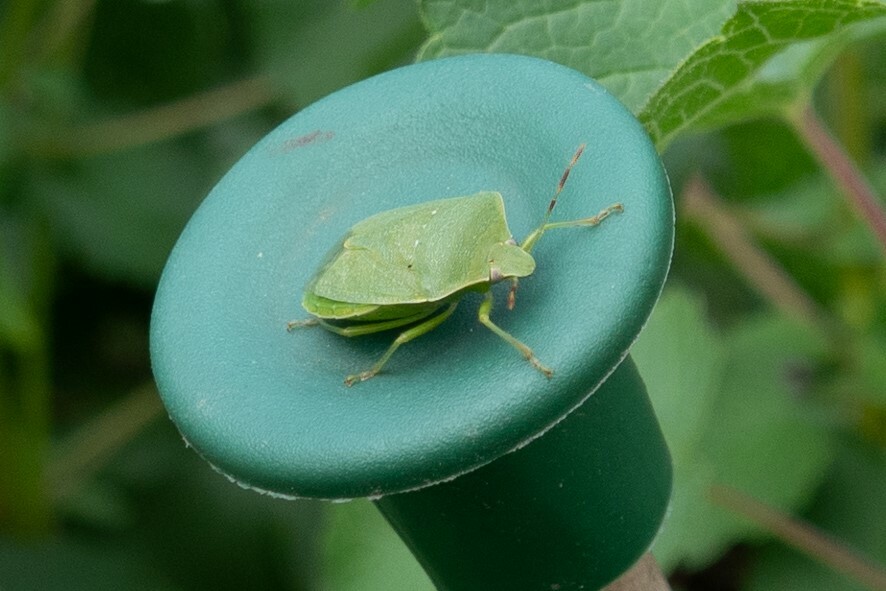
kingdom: Animalia
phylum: Arthropoda
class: Insecta
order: Hemiptera
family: Pentatomidae
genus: Nezara
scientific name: Nezara viridula
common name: Southern green stink bug
